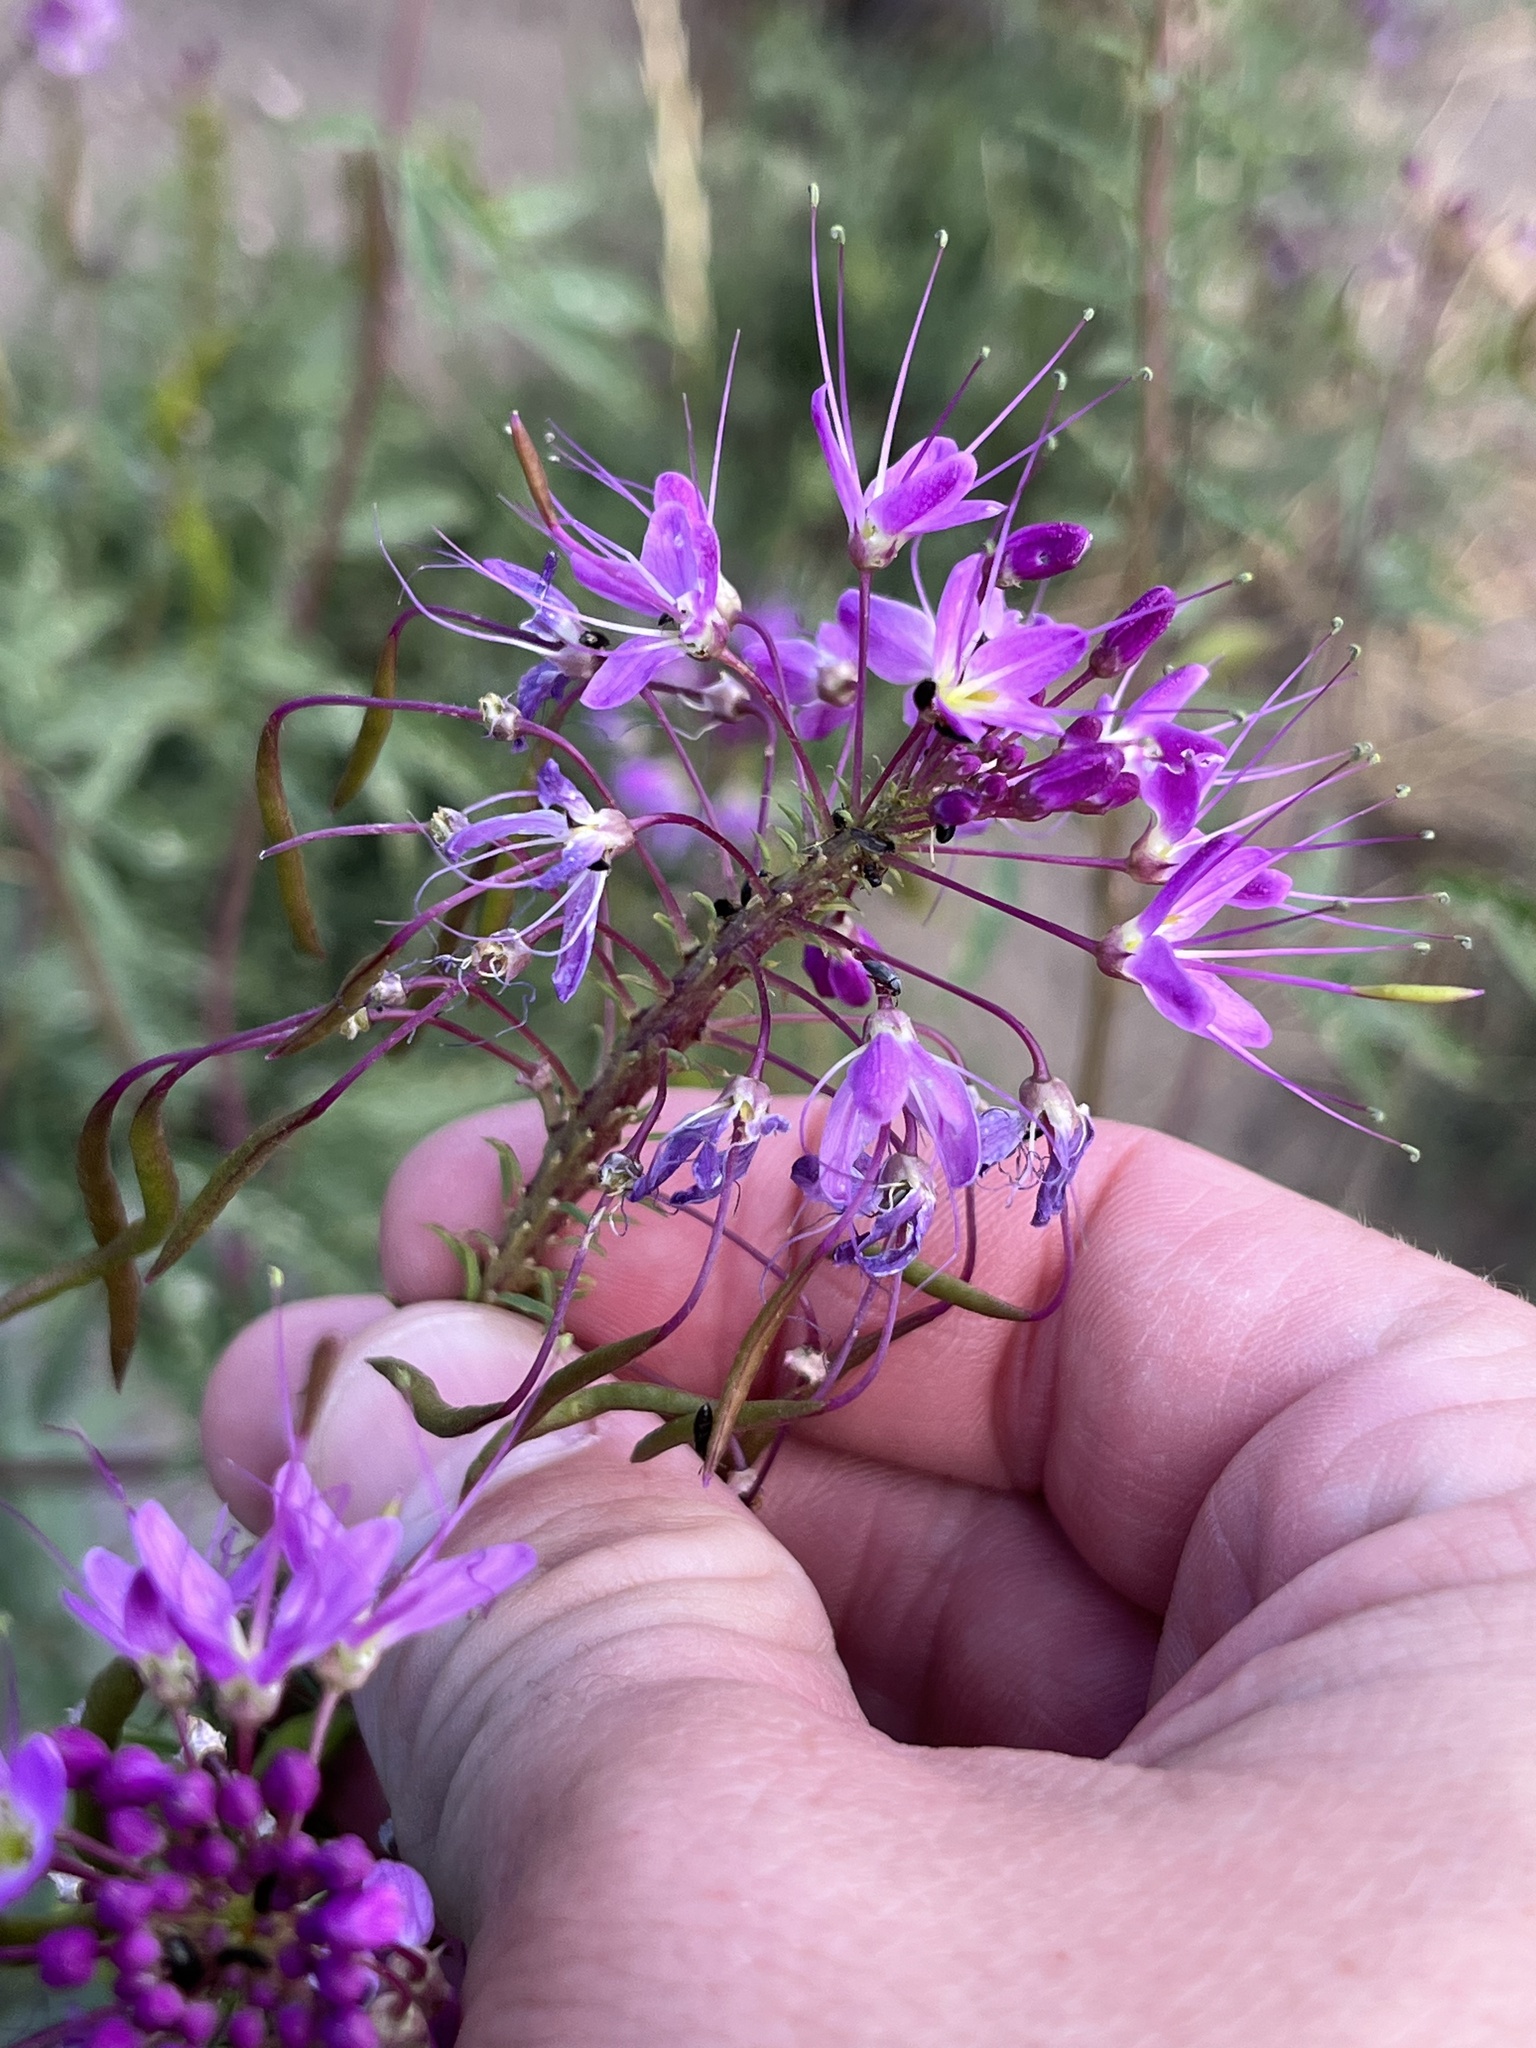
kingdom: Plantae
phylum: Tracheophyta
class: Magnoliopsida
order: Brassicales
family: Cleomaceae
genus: Cleomella
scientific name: Cleomella serrulata
